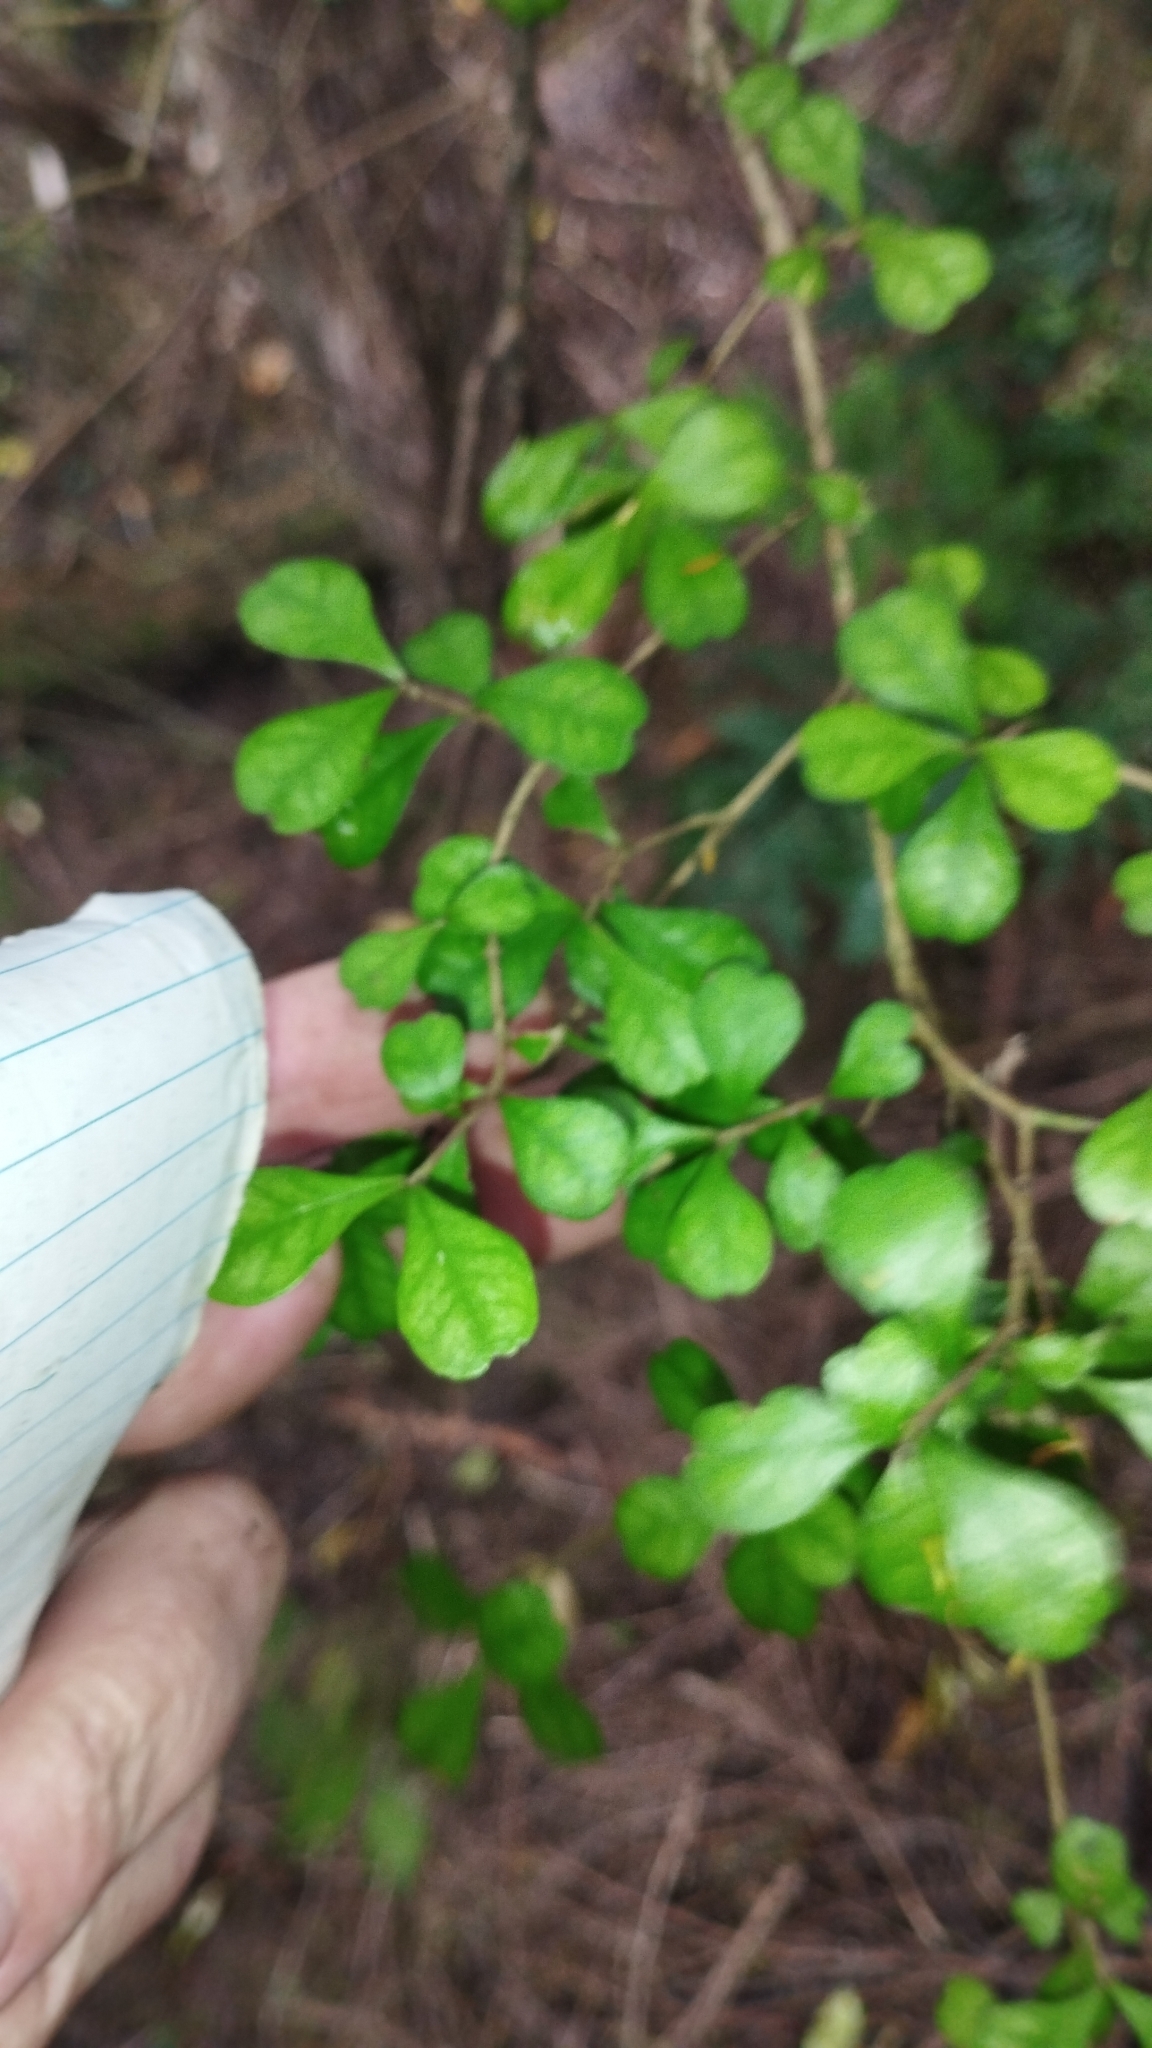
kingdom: Plantae
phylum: Tracheophyta
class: Magnoliopsida
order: Myrtales
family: Myrtaceae
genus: Lophomyrtus
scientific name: Lophomyrtus obcordata
